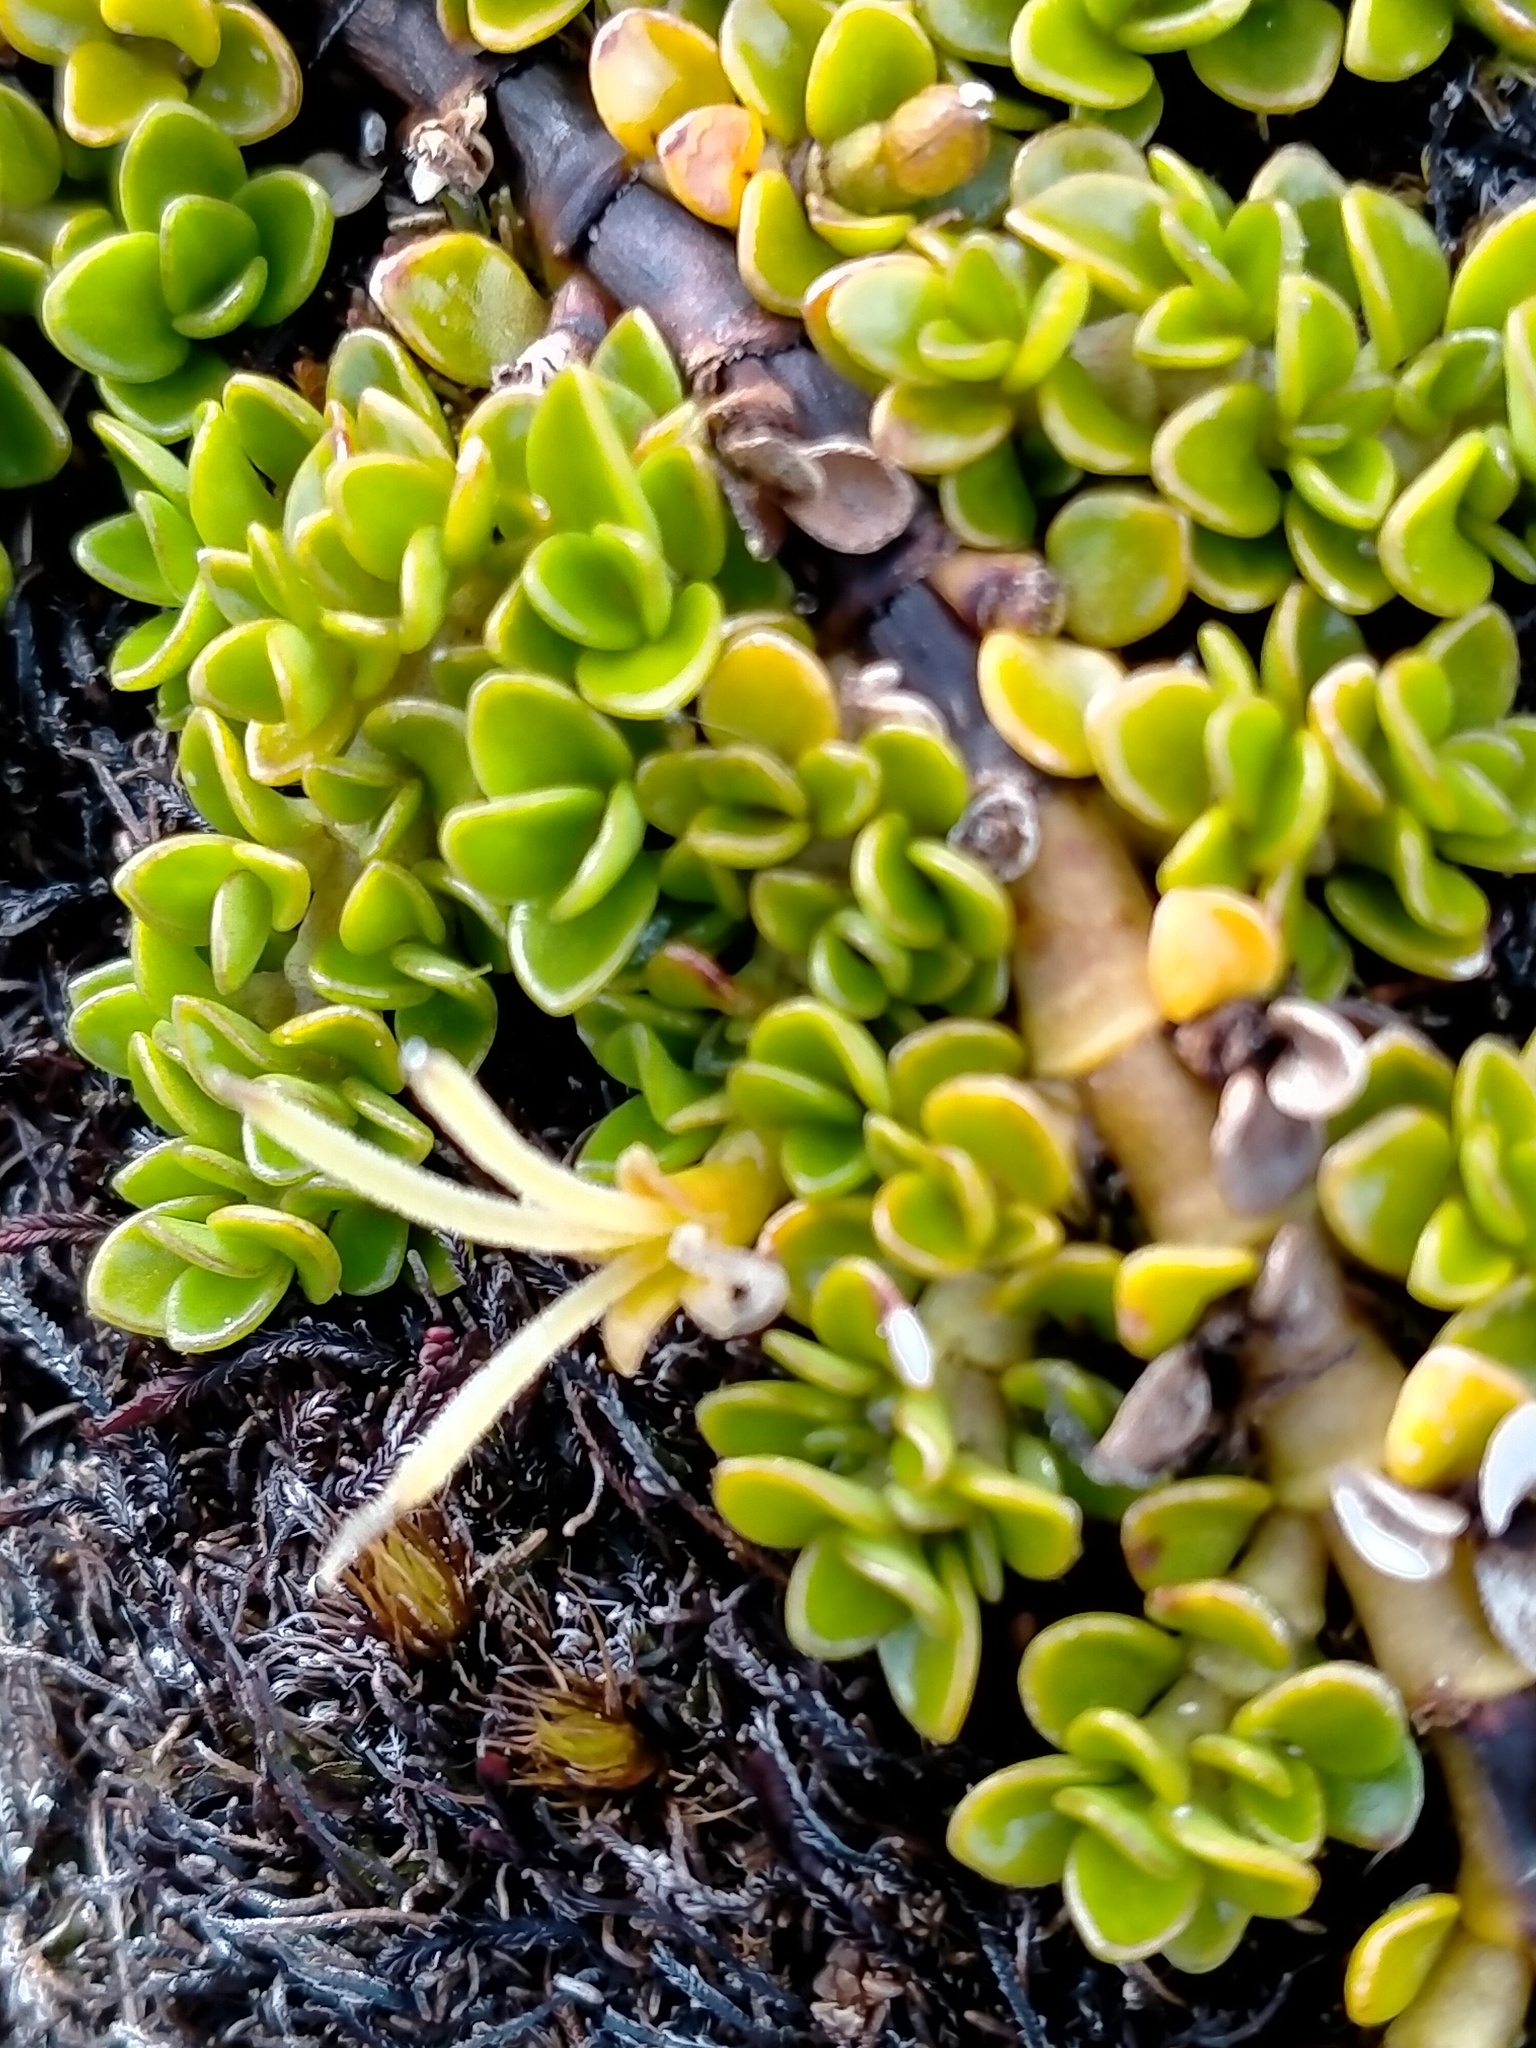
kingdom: Plantae
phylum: Tracheophyta
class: Magnoliopsida
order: Gentianales
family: Rubiaceae
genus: Coprosma
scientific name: Coprosma perpusilla
